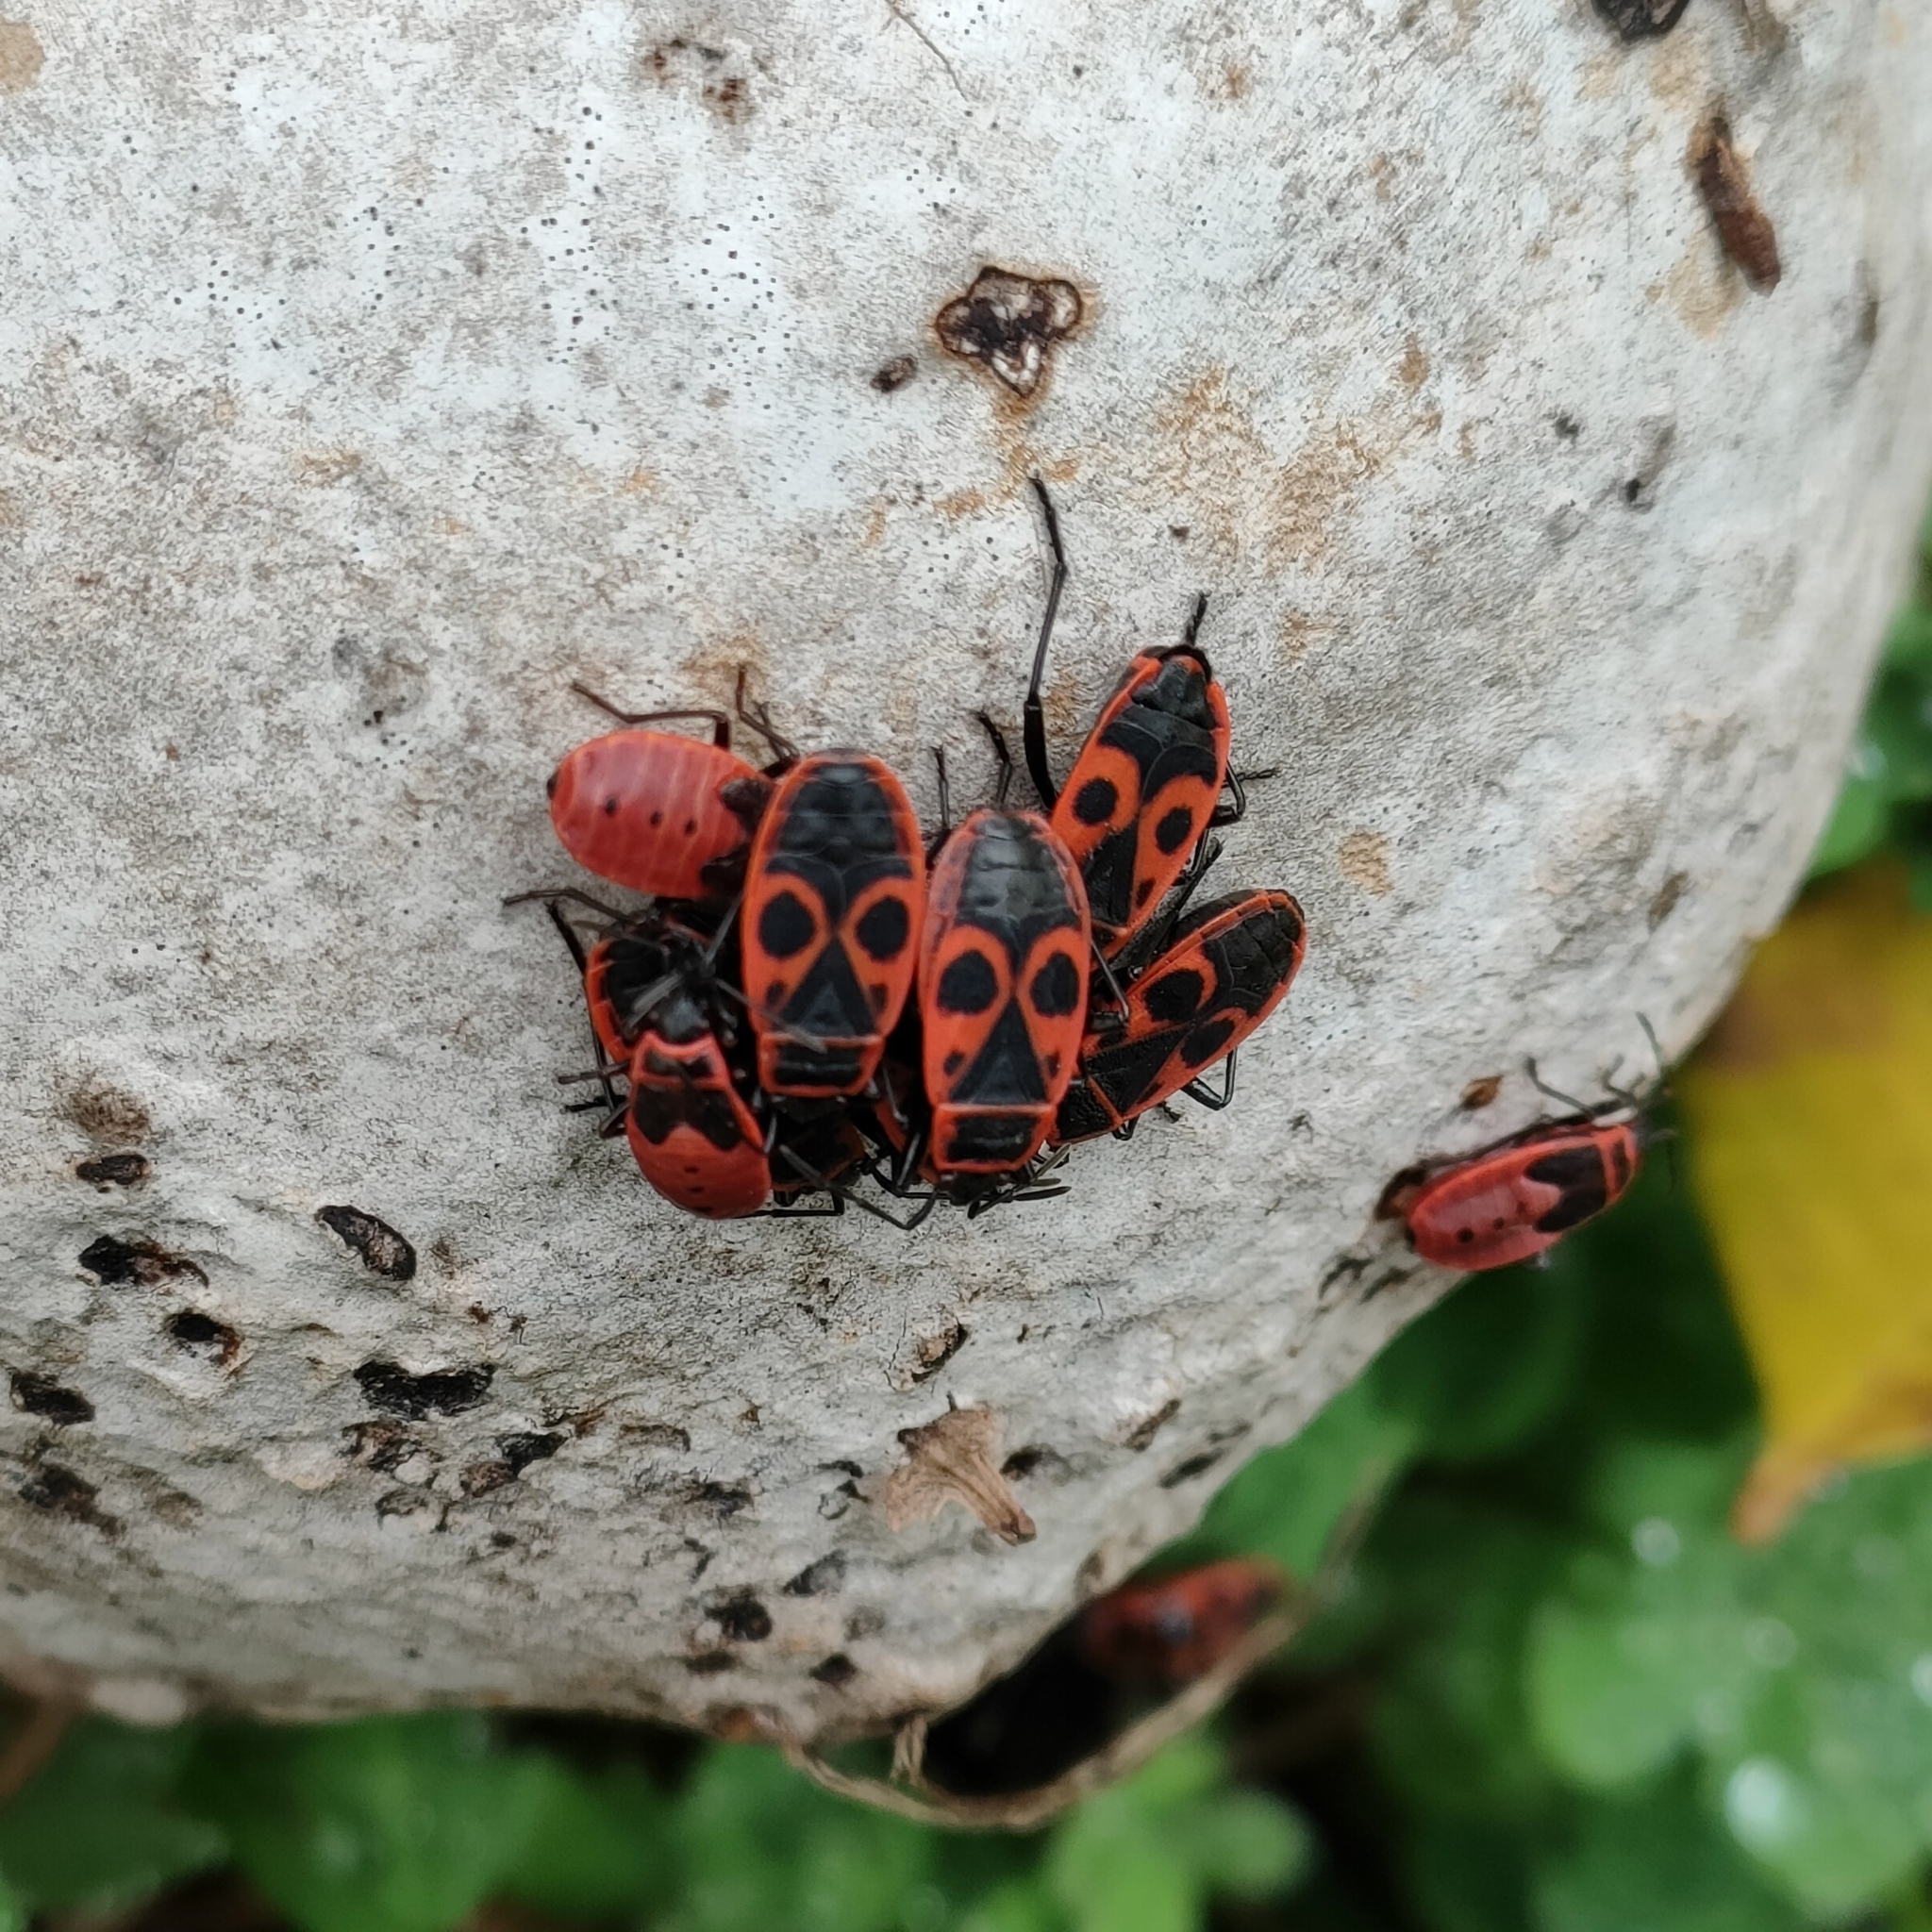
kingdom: Animalia
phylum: Arthropoda
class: Insecta
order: Hemiptera
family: Pyrrhocoridae
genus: Pyrrhocoris
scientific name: Pyrrhocoris apterus
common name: Firebug
